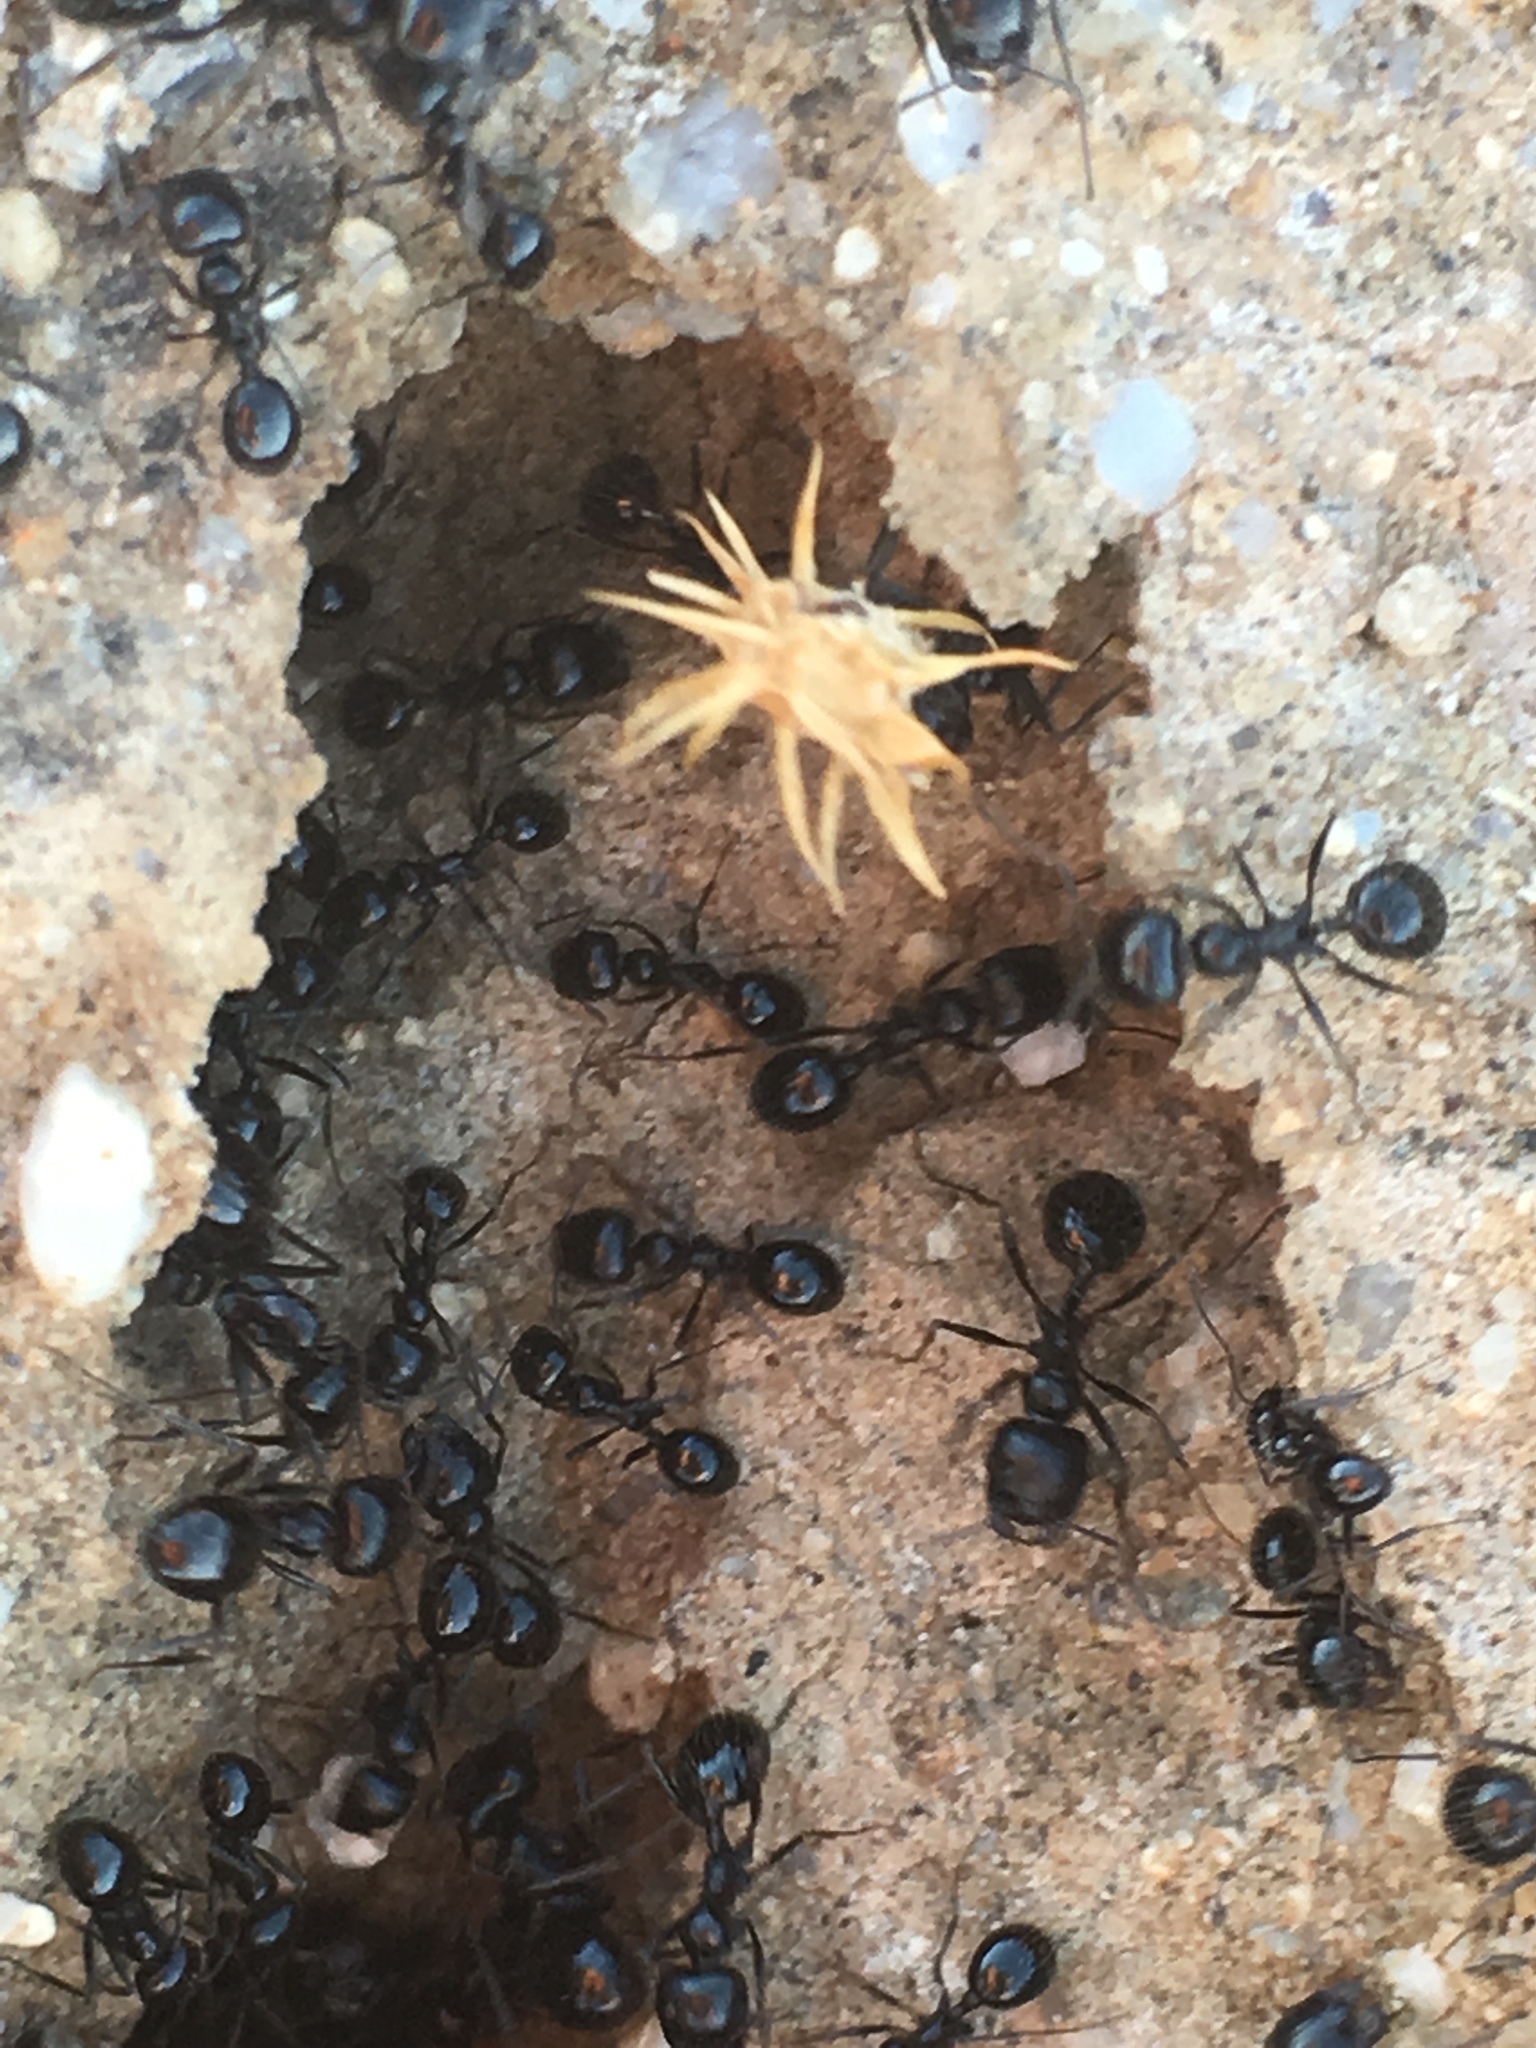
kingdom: Animalia
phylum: Arthropoda
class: Insecta
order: Hymenoptera
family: Formicidae
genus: Messor
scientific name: Messor pergandei
